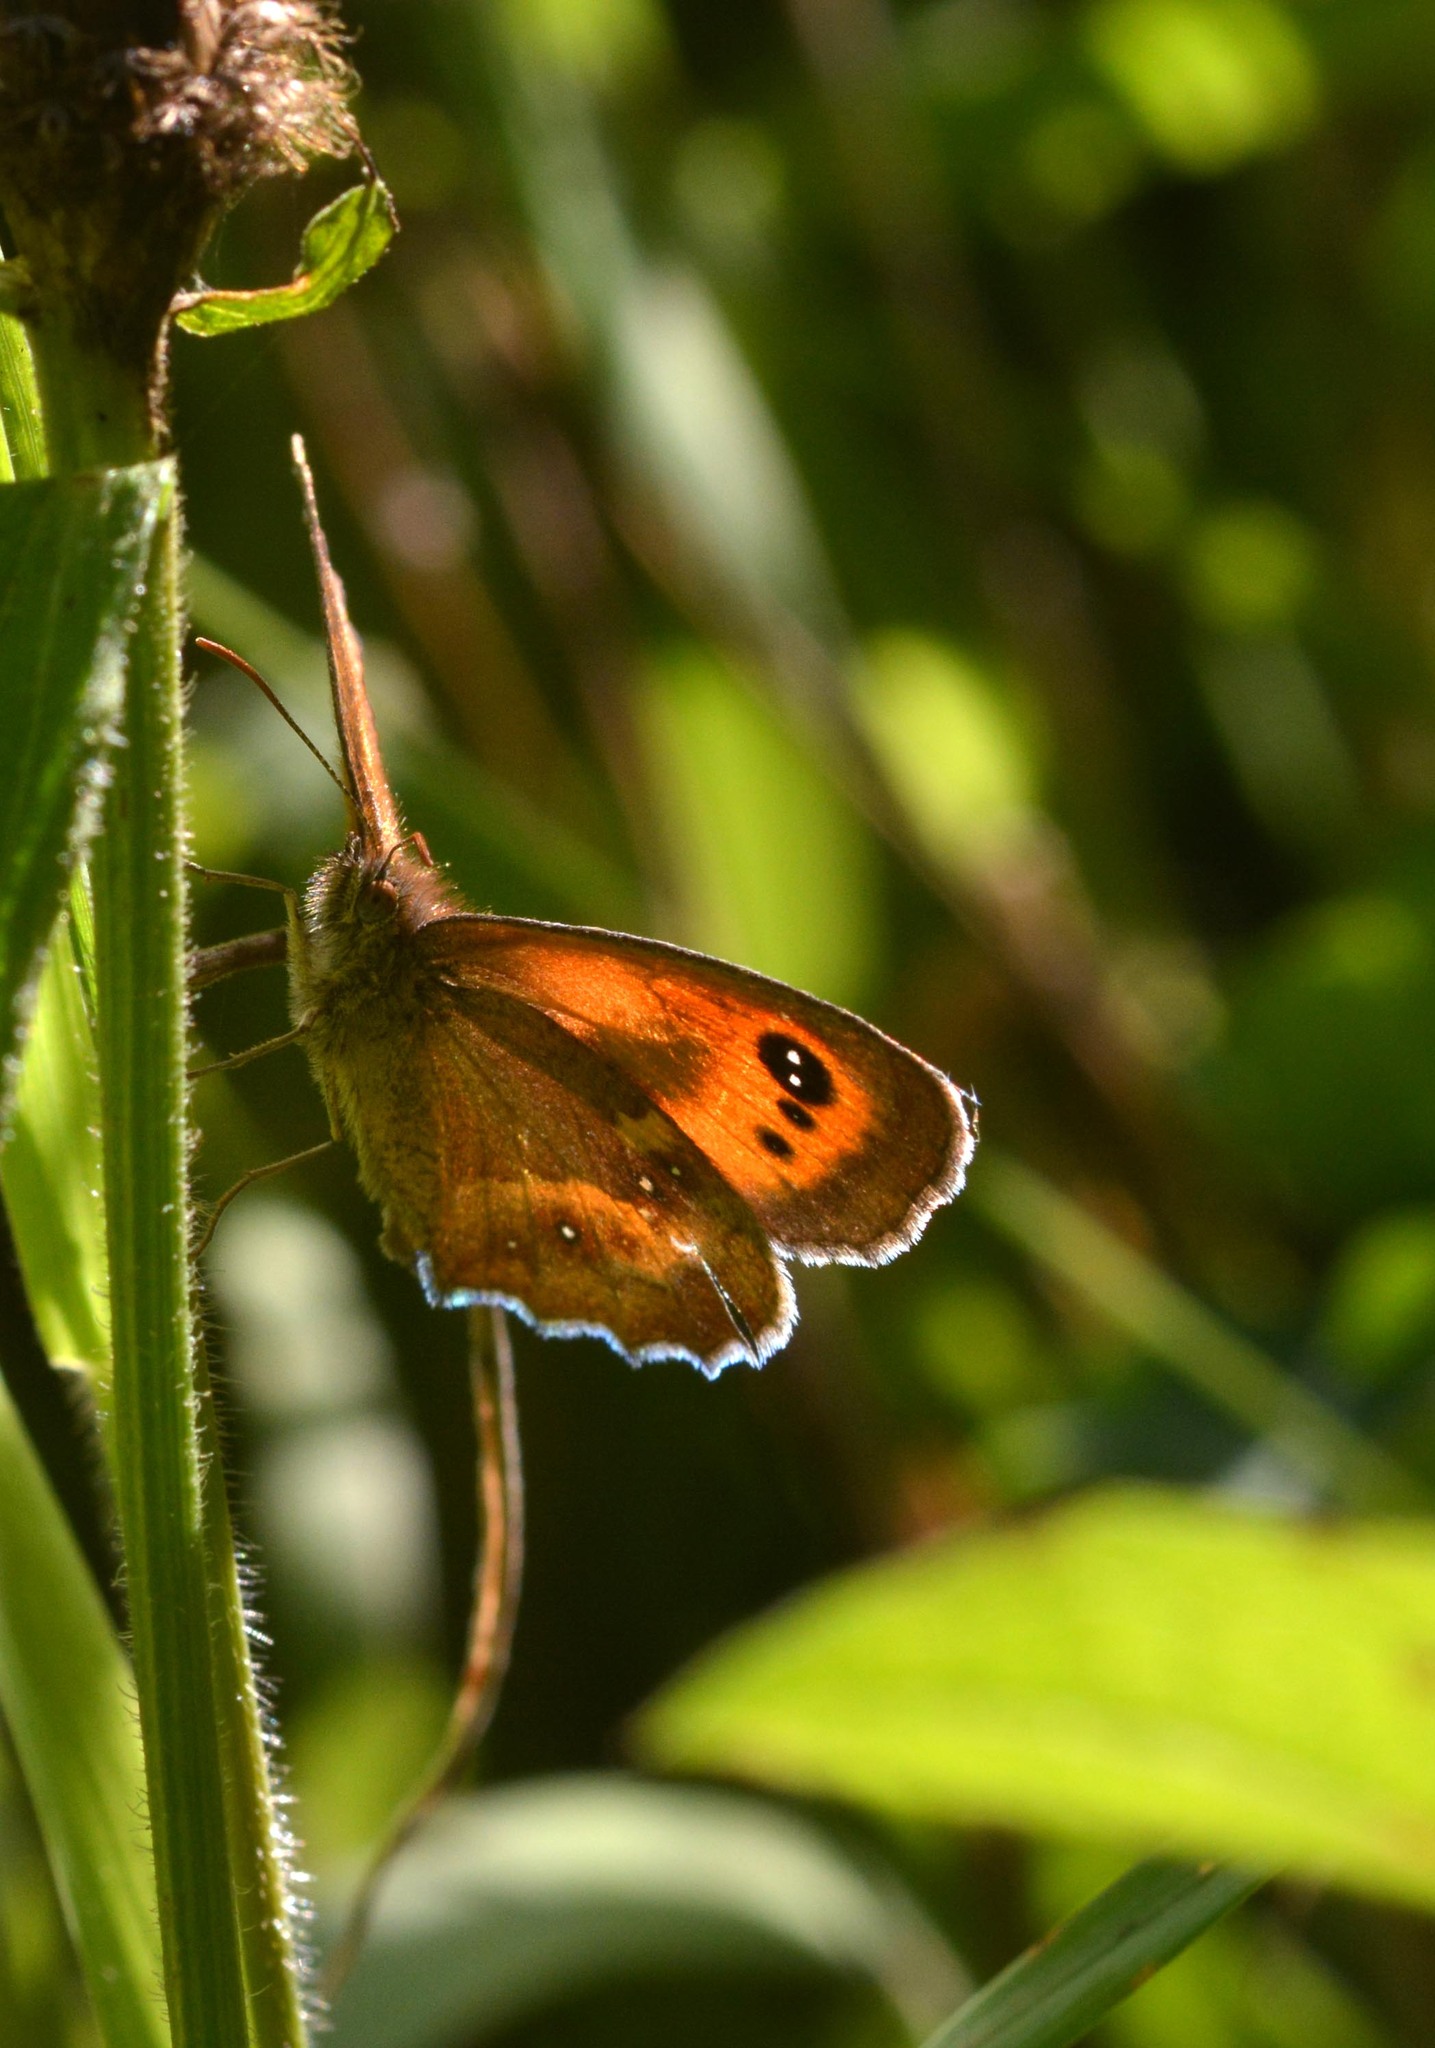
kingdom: Animalia
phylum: Arthropoda
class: Insecta
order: Lepidoptera
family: Nymphalidae
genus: Pyronia
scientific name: Pyronia tithonus
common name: Gatekeeper
